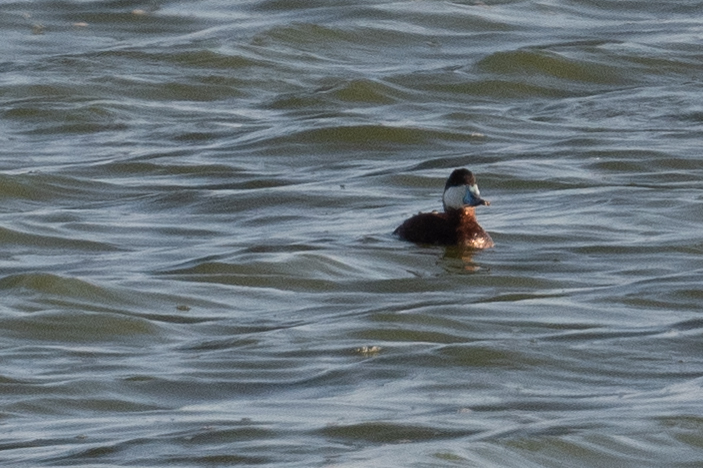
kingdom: Animalia
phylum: Chordata
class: Aves
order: Anseriformes
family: Anatidae
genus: Oxyura
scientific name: Oxyura jamaicensis
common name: Ruddy duck
